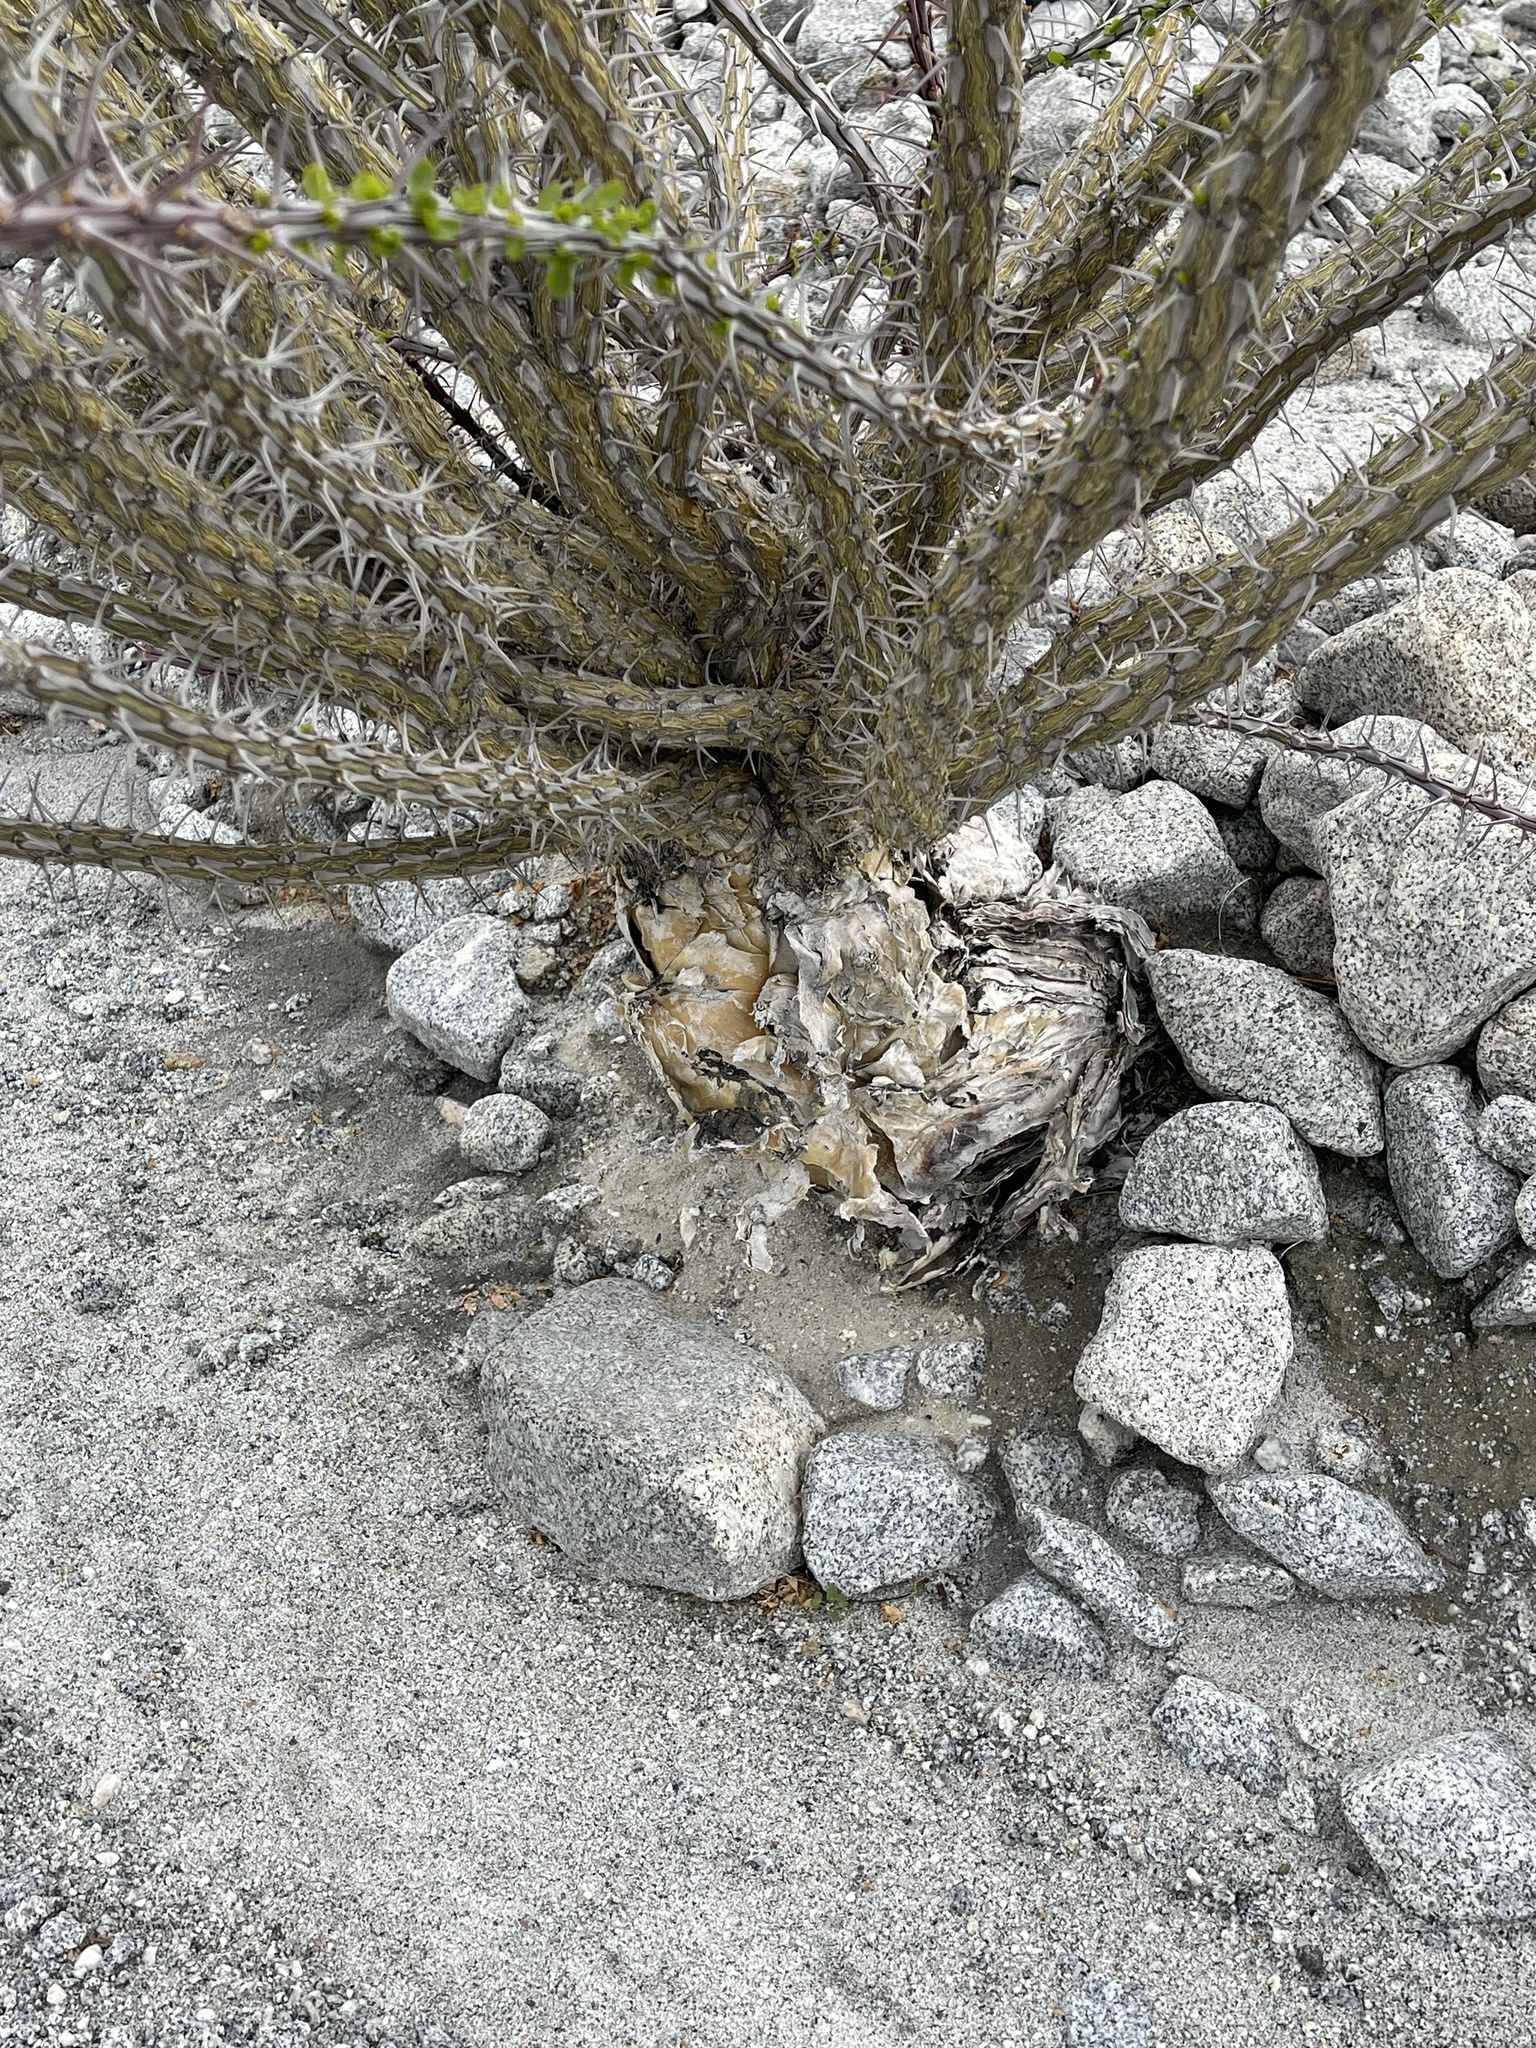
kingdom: Plantae
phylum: Tracheophyta
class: Magnoliopsida
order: Ericales
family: Fouquieriaceae
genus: Fouquieria
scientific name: Fouquieria splendens
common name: Vine-cactus
